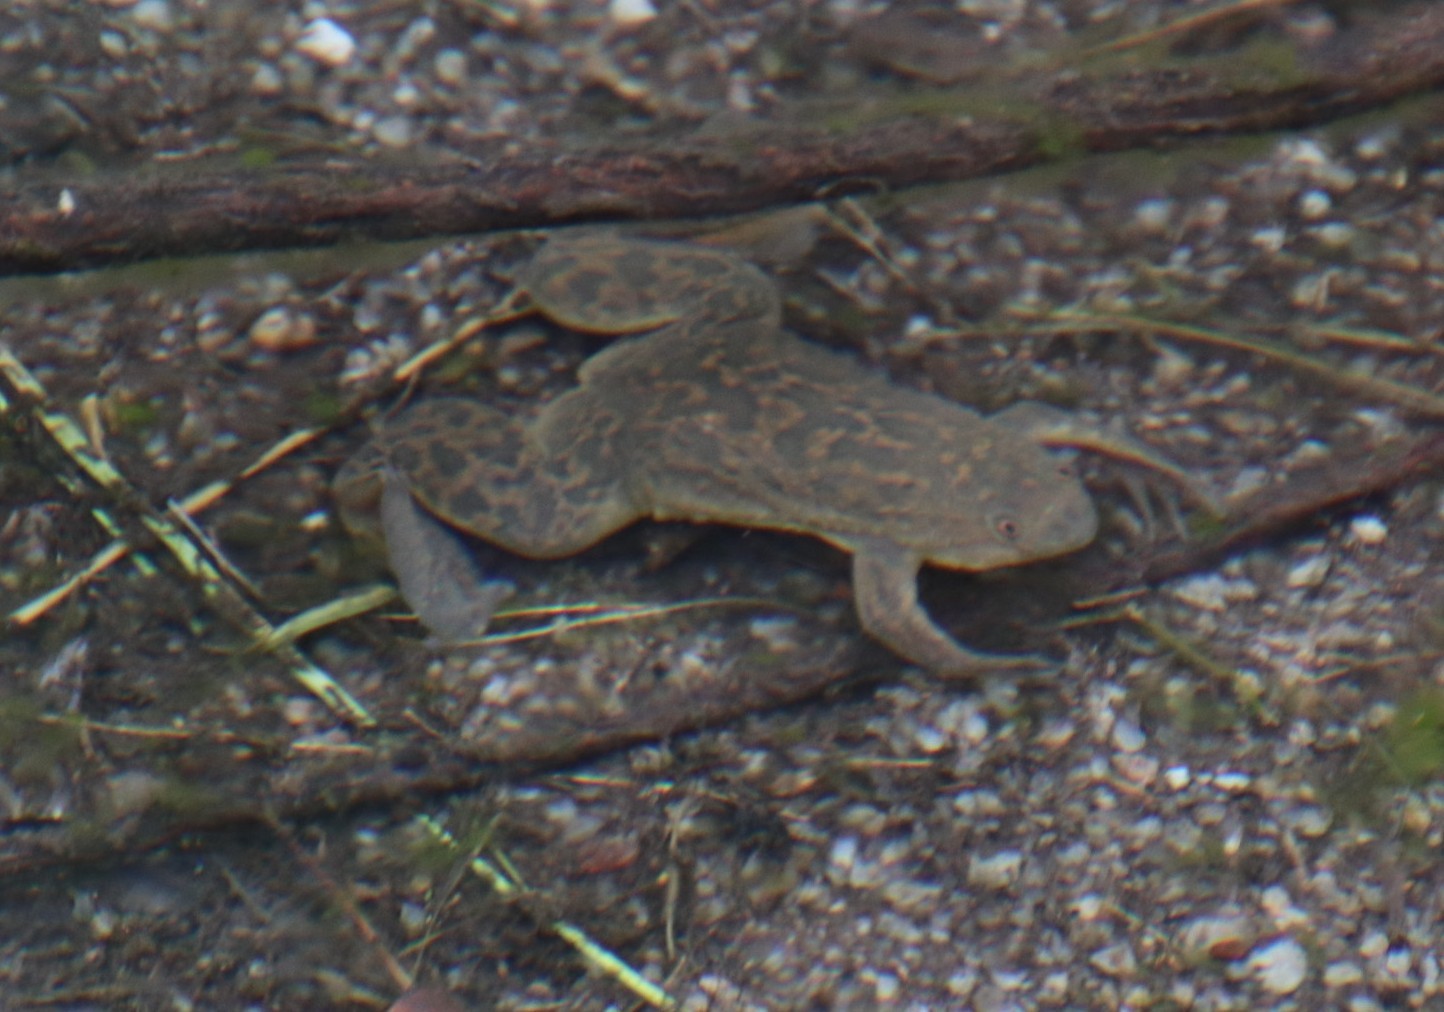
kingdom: Animalia
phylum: Chordata
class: Amphibia
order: Anura
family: Pipidae
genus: Xenopus
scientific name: Xenopus laevis
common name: African clawed frog
